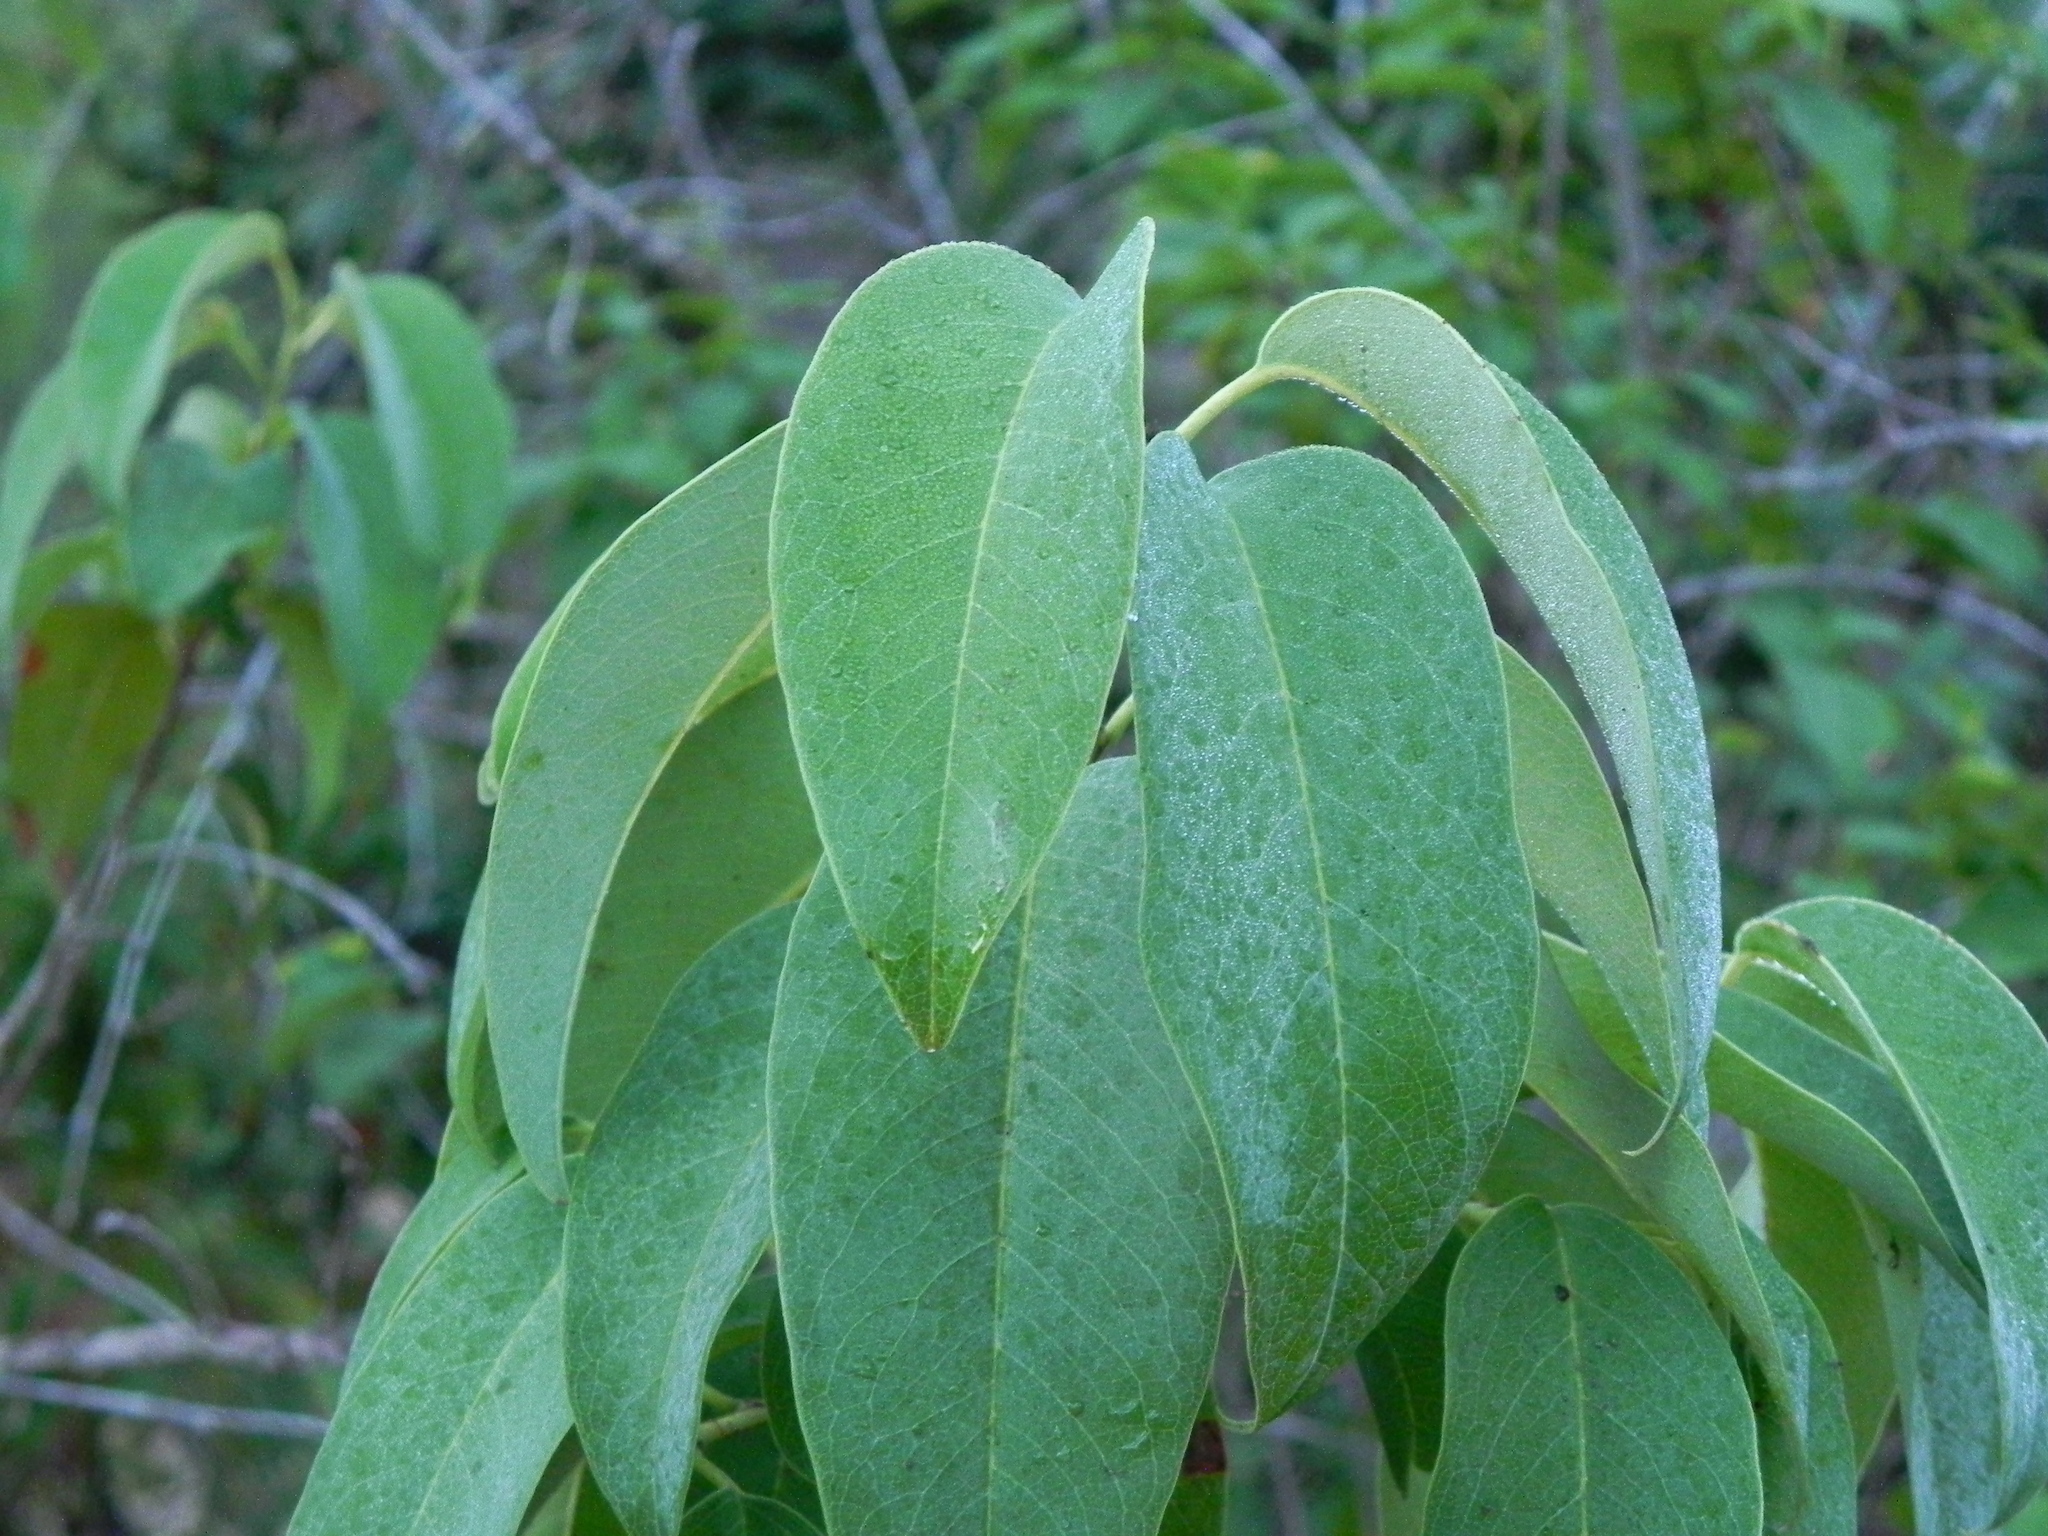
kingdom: Plantae
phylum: Tracheophyta
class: Magnoliopsida
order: Rosales
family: Rosaceae
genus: Prunus
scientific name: Prunus ilicifolia
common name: Hollyleaf cherry
